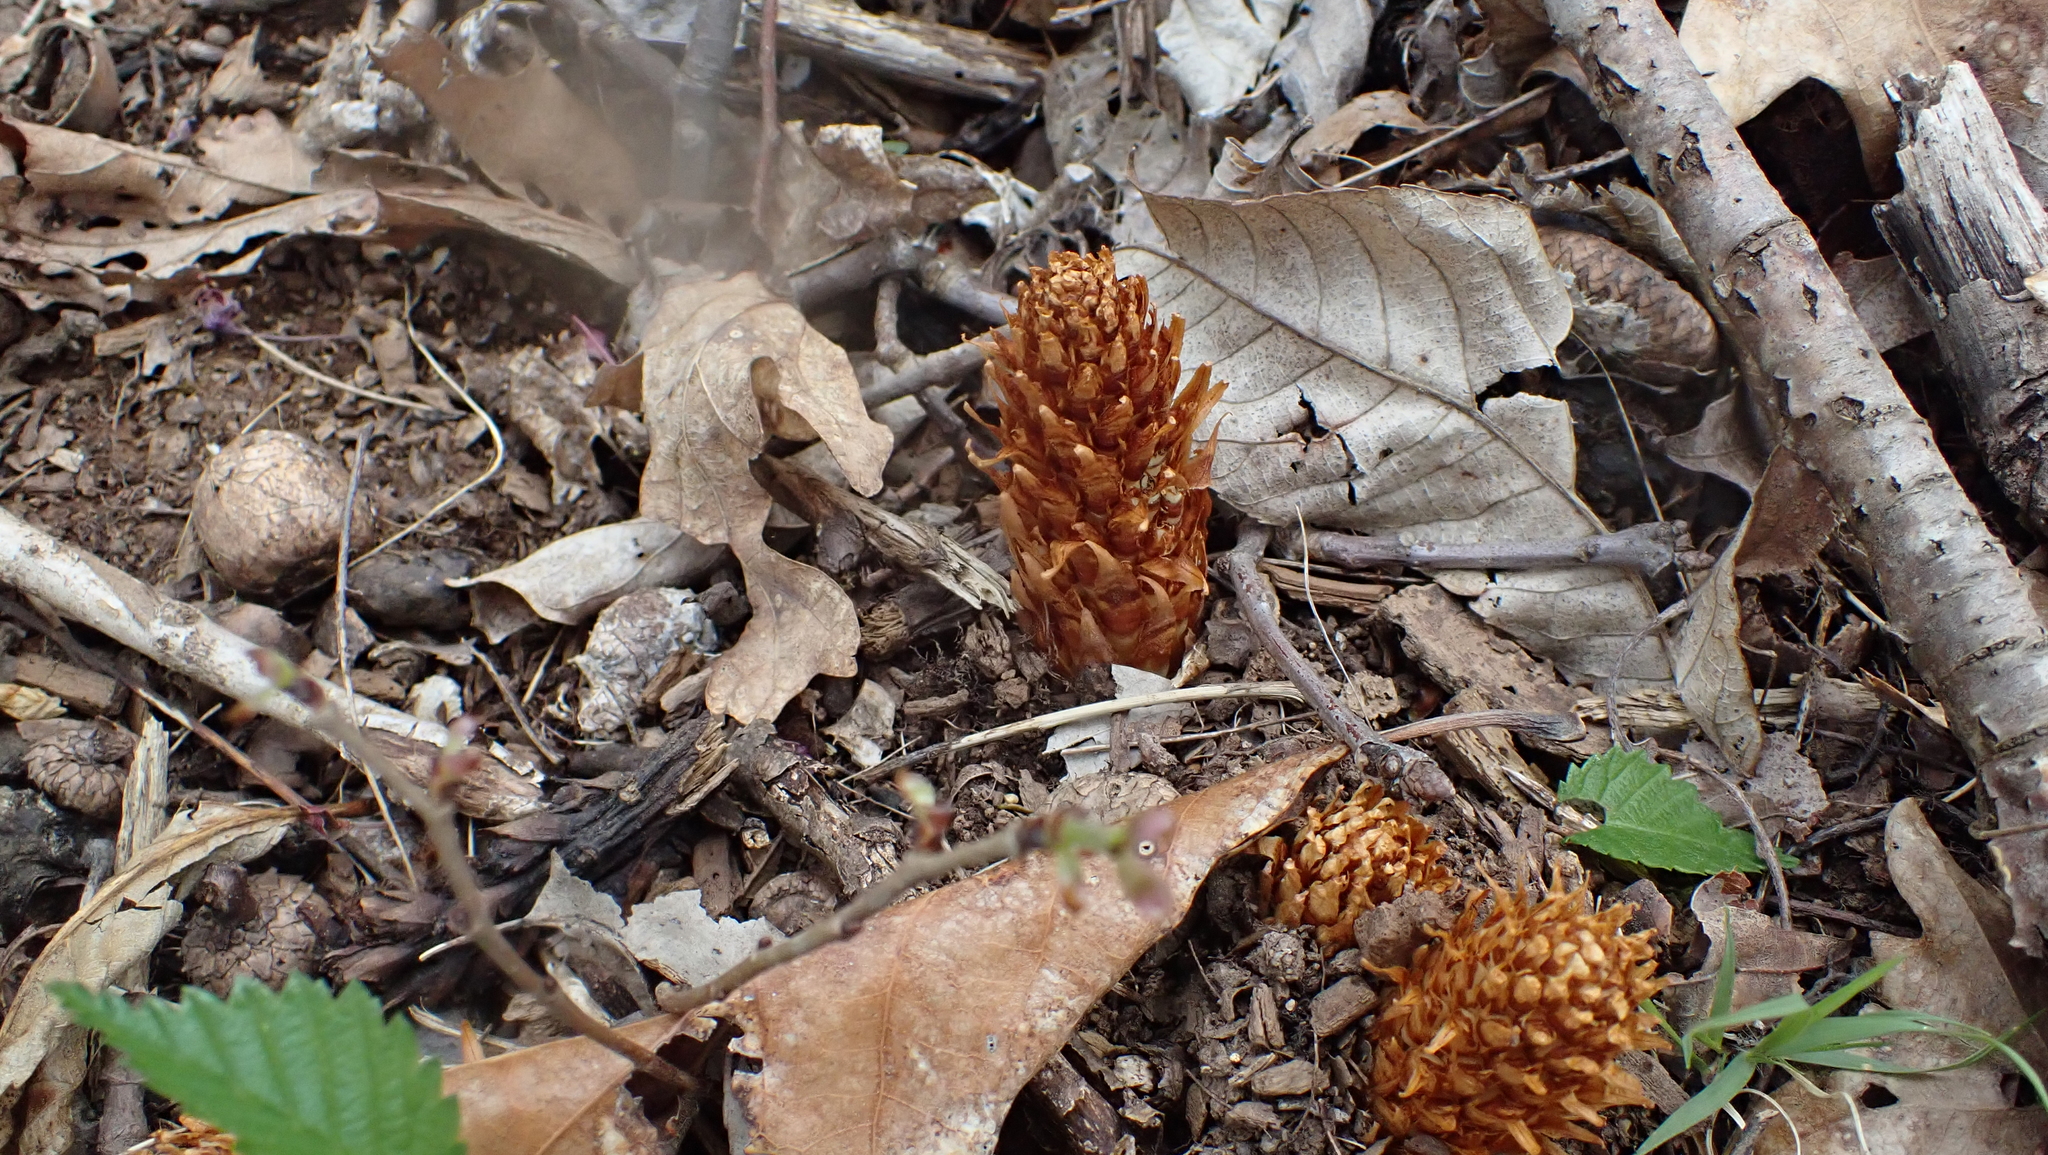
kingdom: Plantae
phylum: Tracheophyta
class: Magnoliopsida
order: Lamiales
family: Orobanchaceae
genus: Conopholis
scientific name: Conopholis americana
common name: American cancer-root
